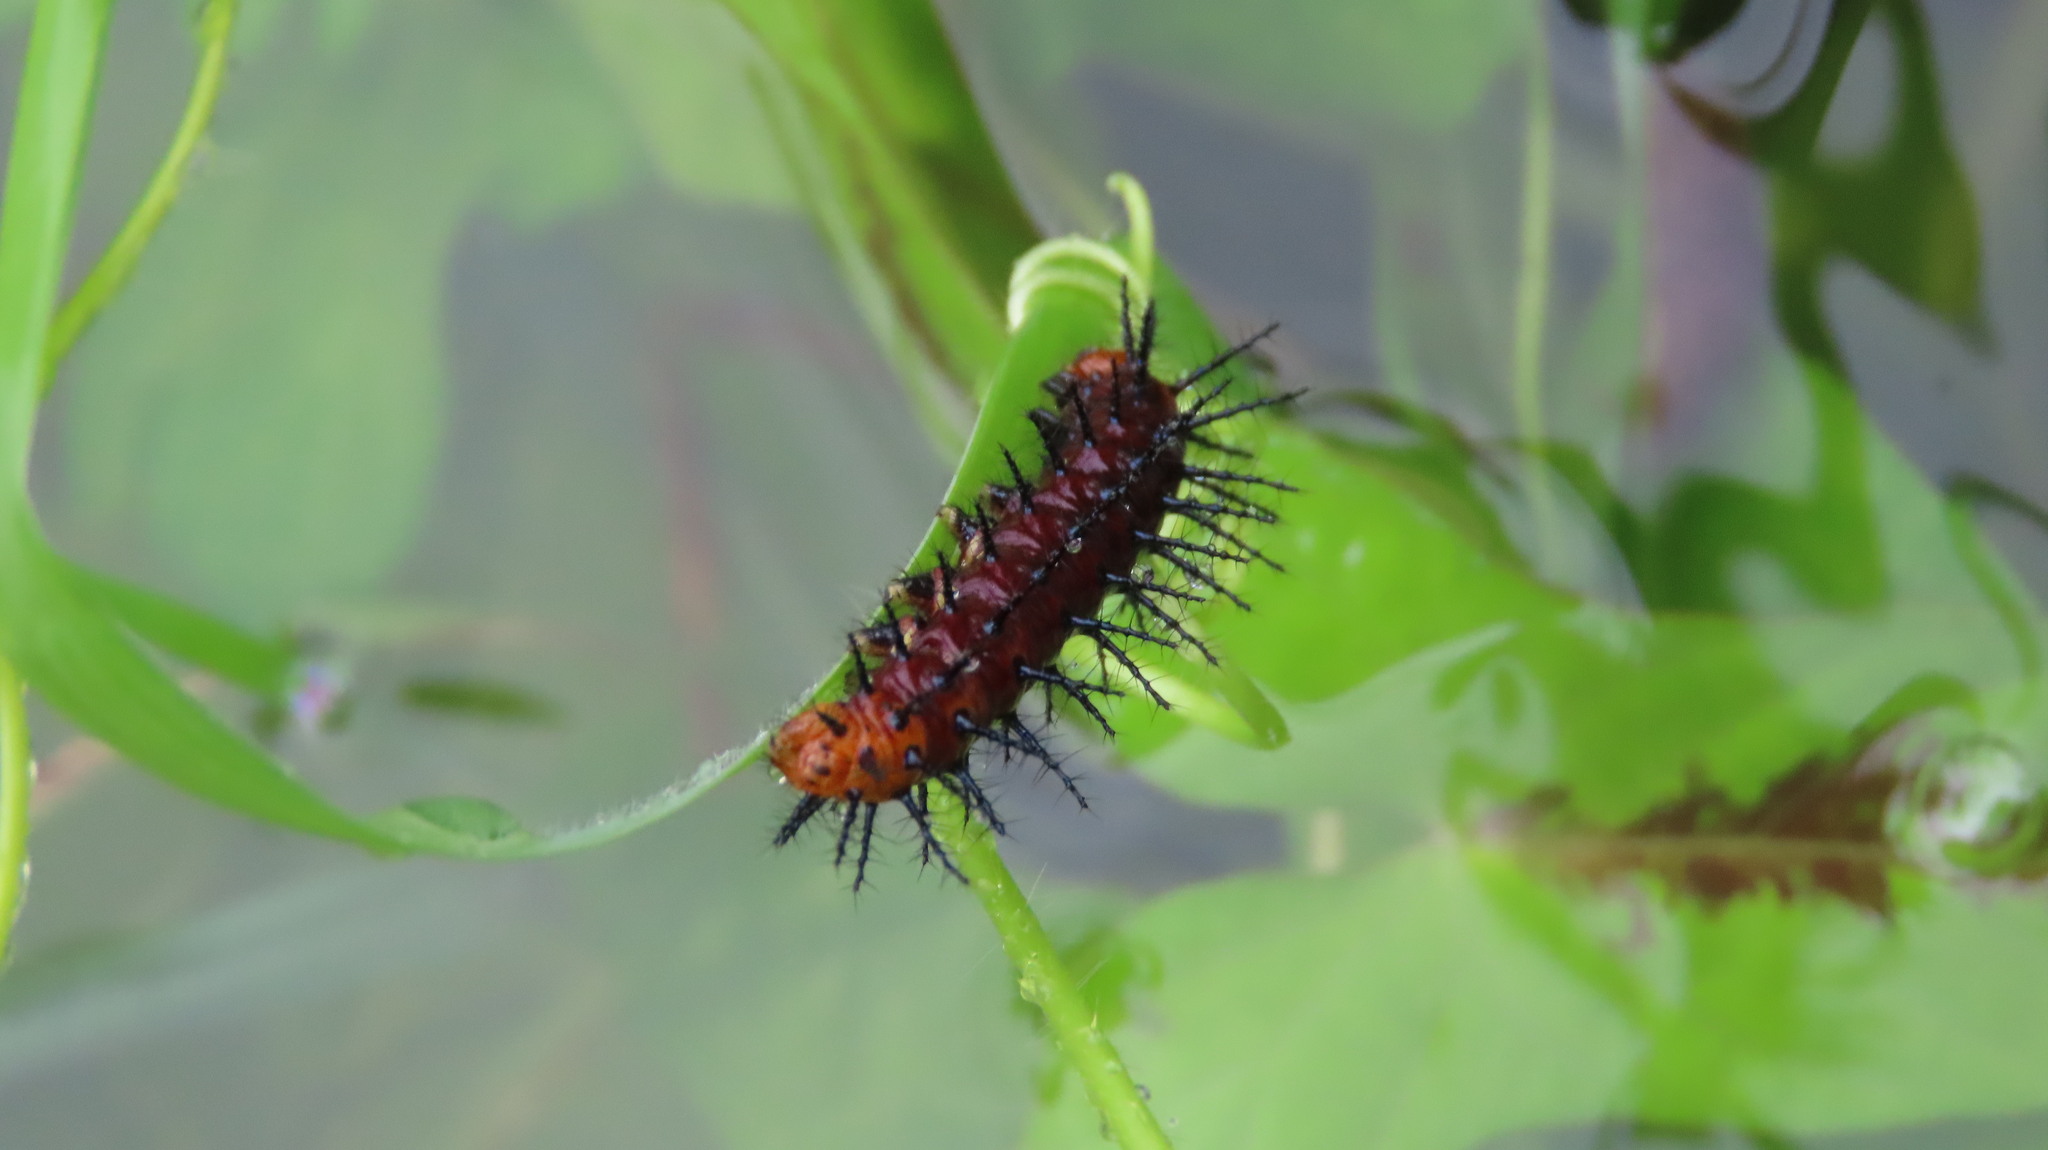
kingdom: Animalia
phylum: Arthropoda
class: Insecta
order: Lepidoptera
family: Nymphalidae
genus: Acraea
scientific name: Acraea terpsicore
